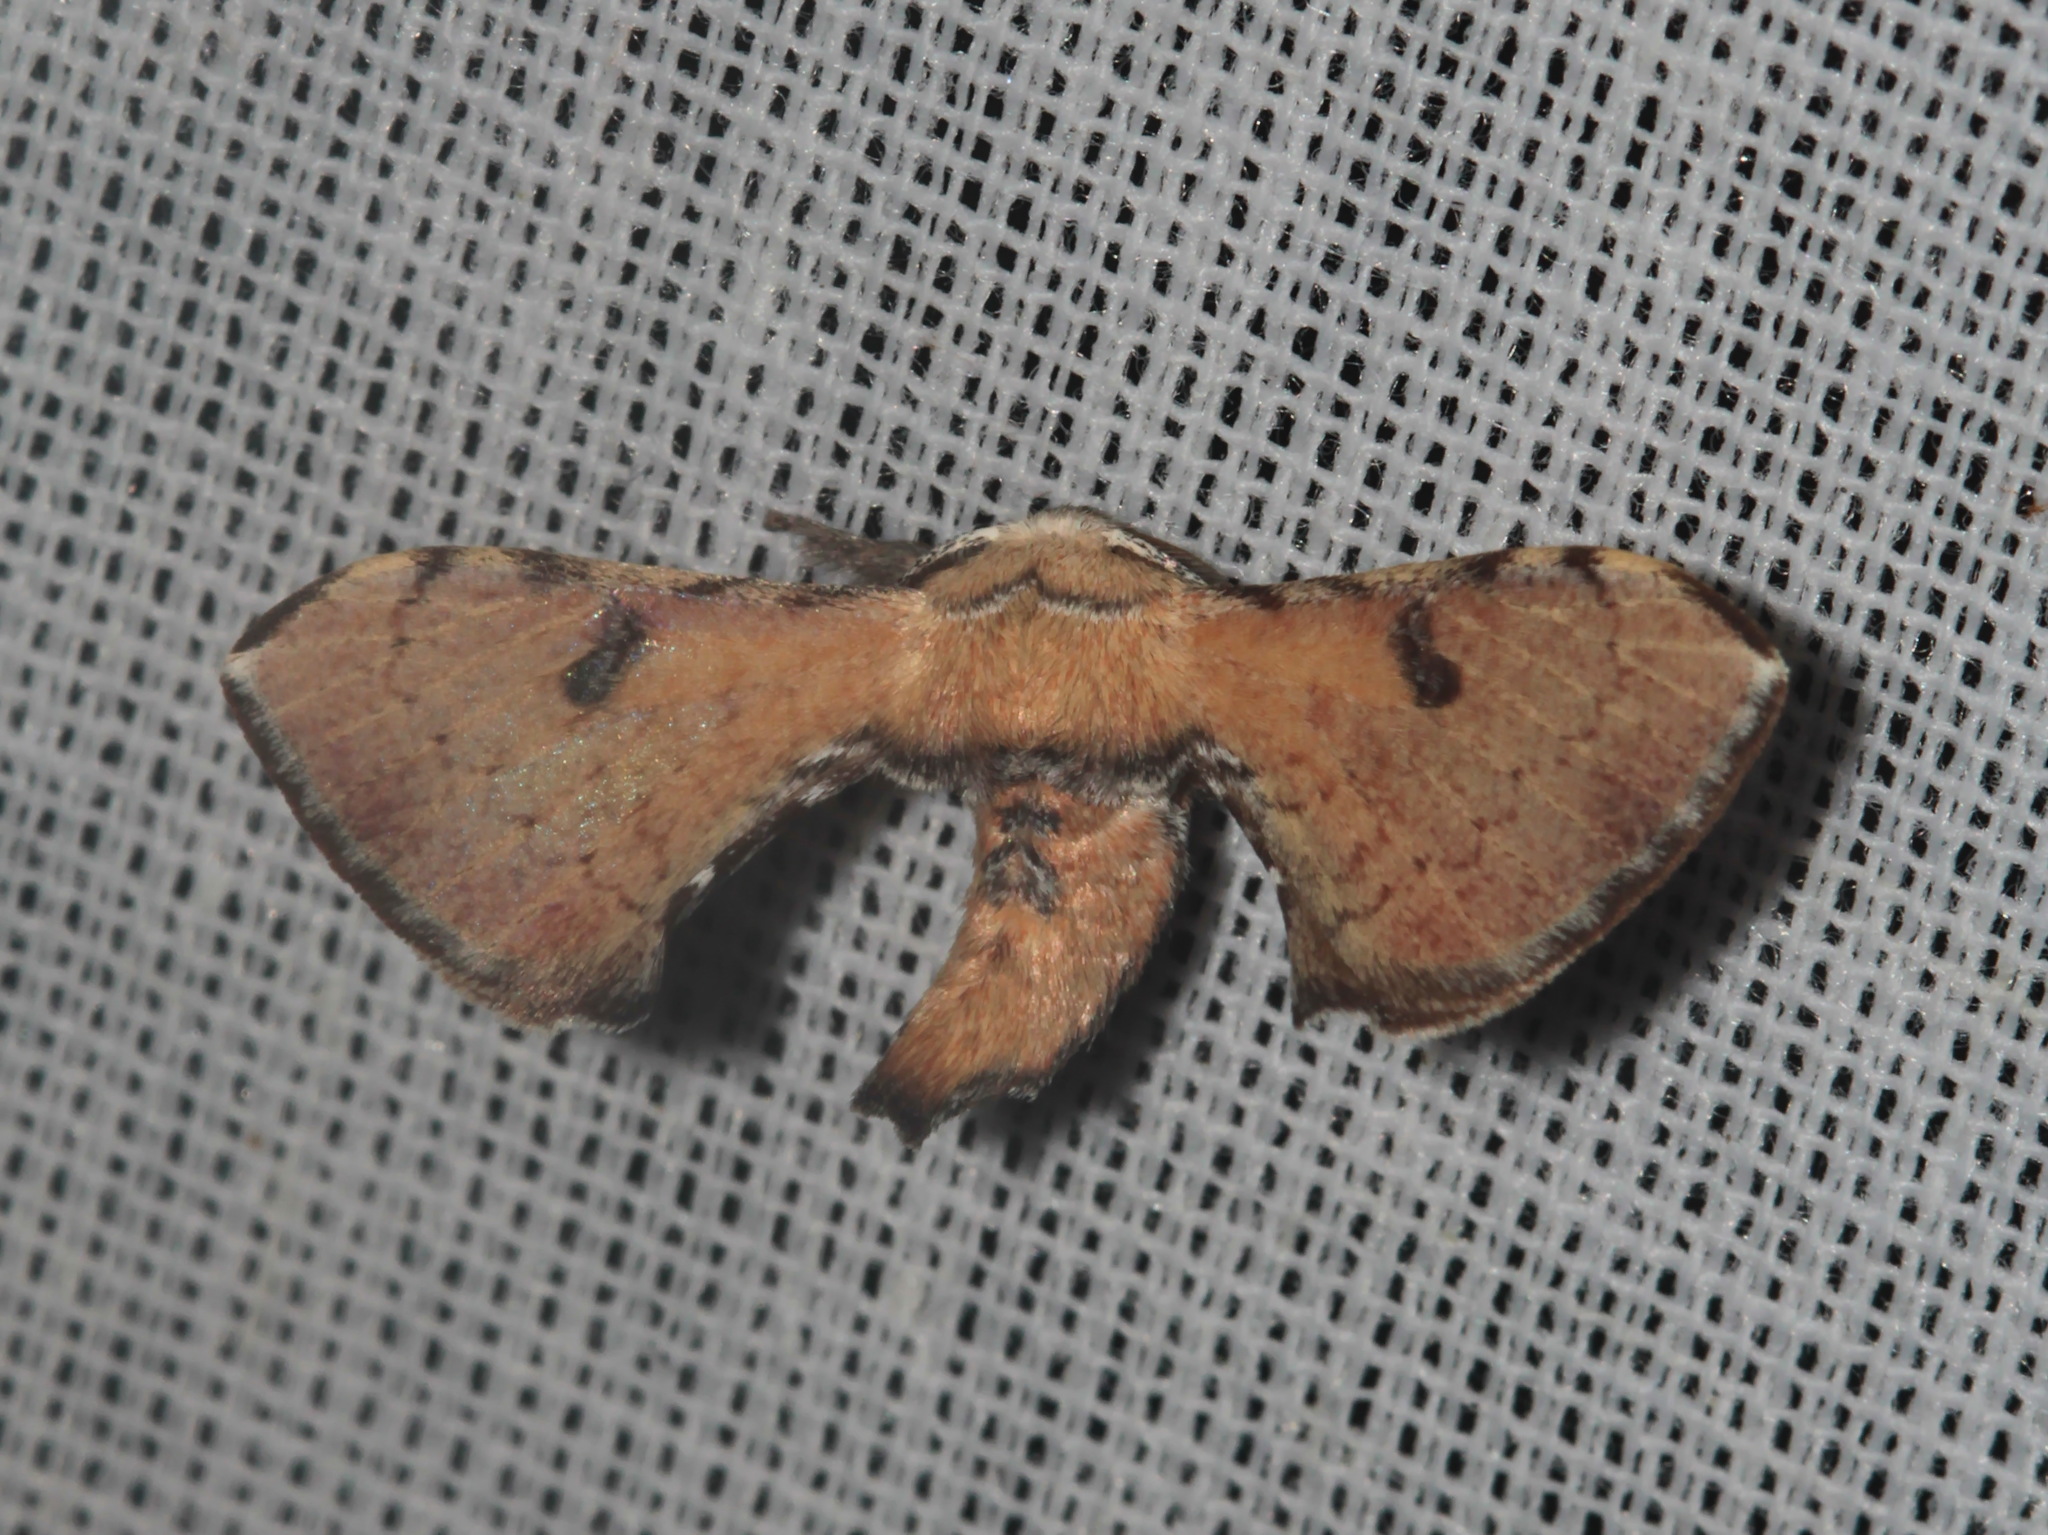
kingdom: Animalia
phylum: Arthropoda
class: Insecta
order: Lepidoptera
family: Bombycidae
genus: Trilocha
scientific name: Trilocha varians
